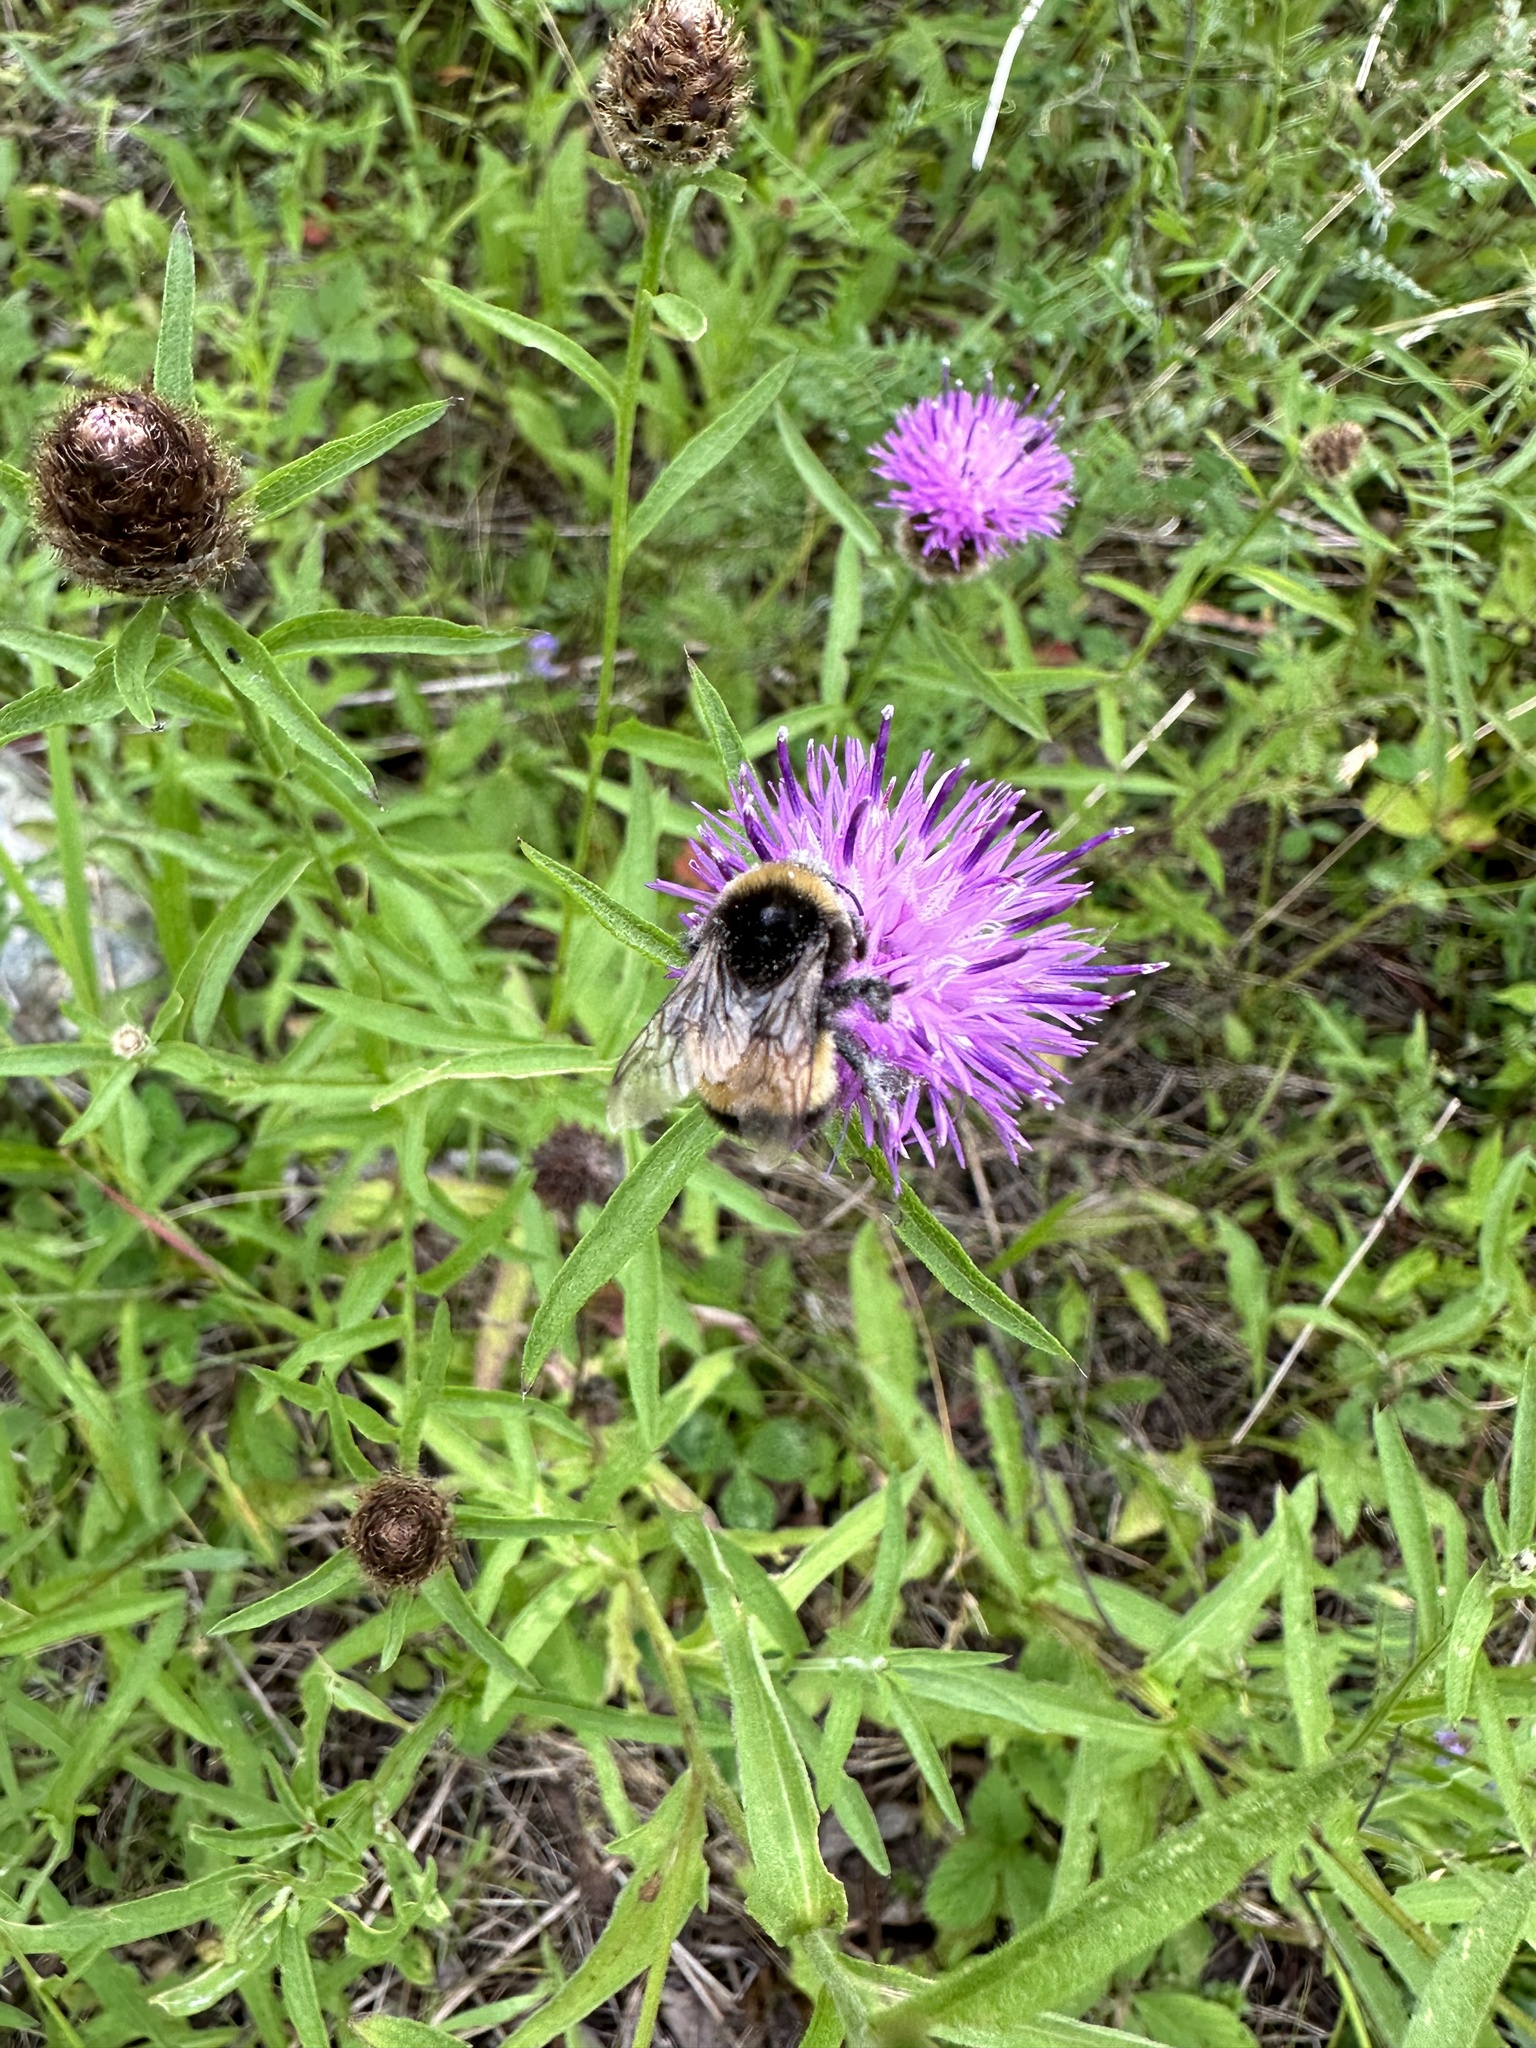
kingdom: Animalia
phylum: Arthropoda
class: Insecta
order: Hymenoptera
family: Apidae
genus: Bombus
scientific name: Bombus terricola
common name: Yellow-banded bumble bee
